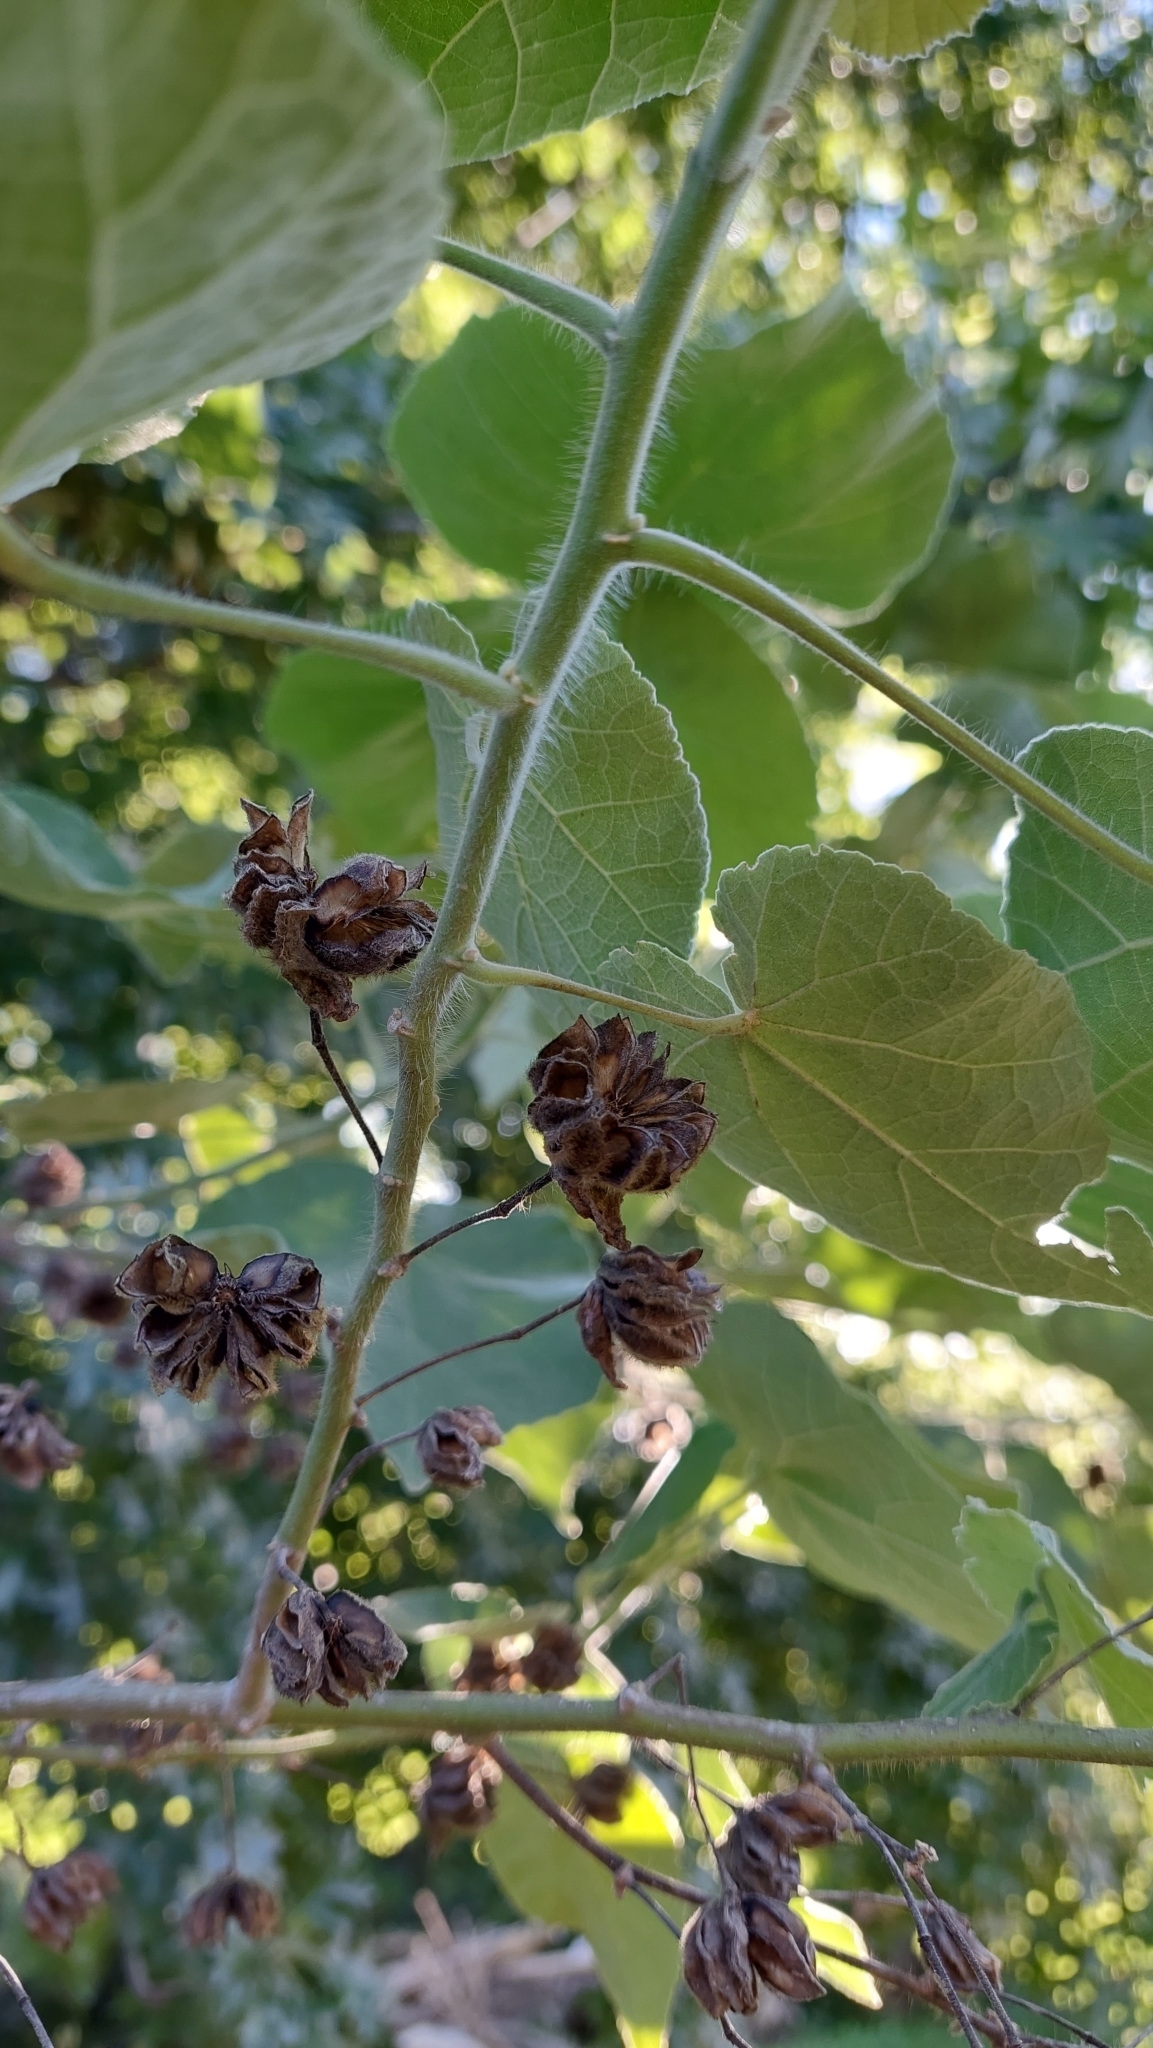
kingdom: Plantae
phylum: Tracheophyta
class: Magnoliopsida
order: Malvales
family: Malvaceae
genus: Abutilon
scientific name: Abutilon grandifolium
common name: Hairy abutilon
